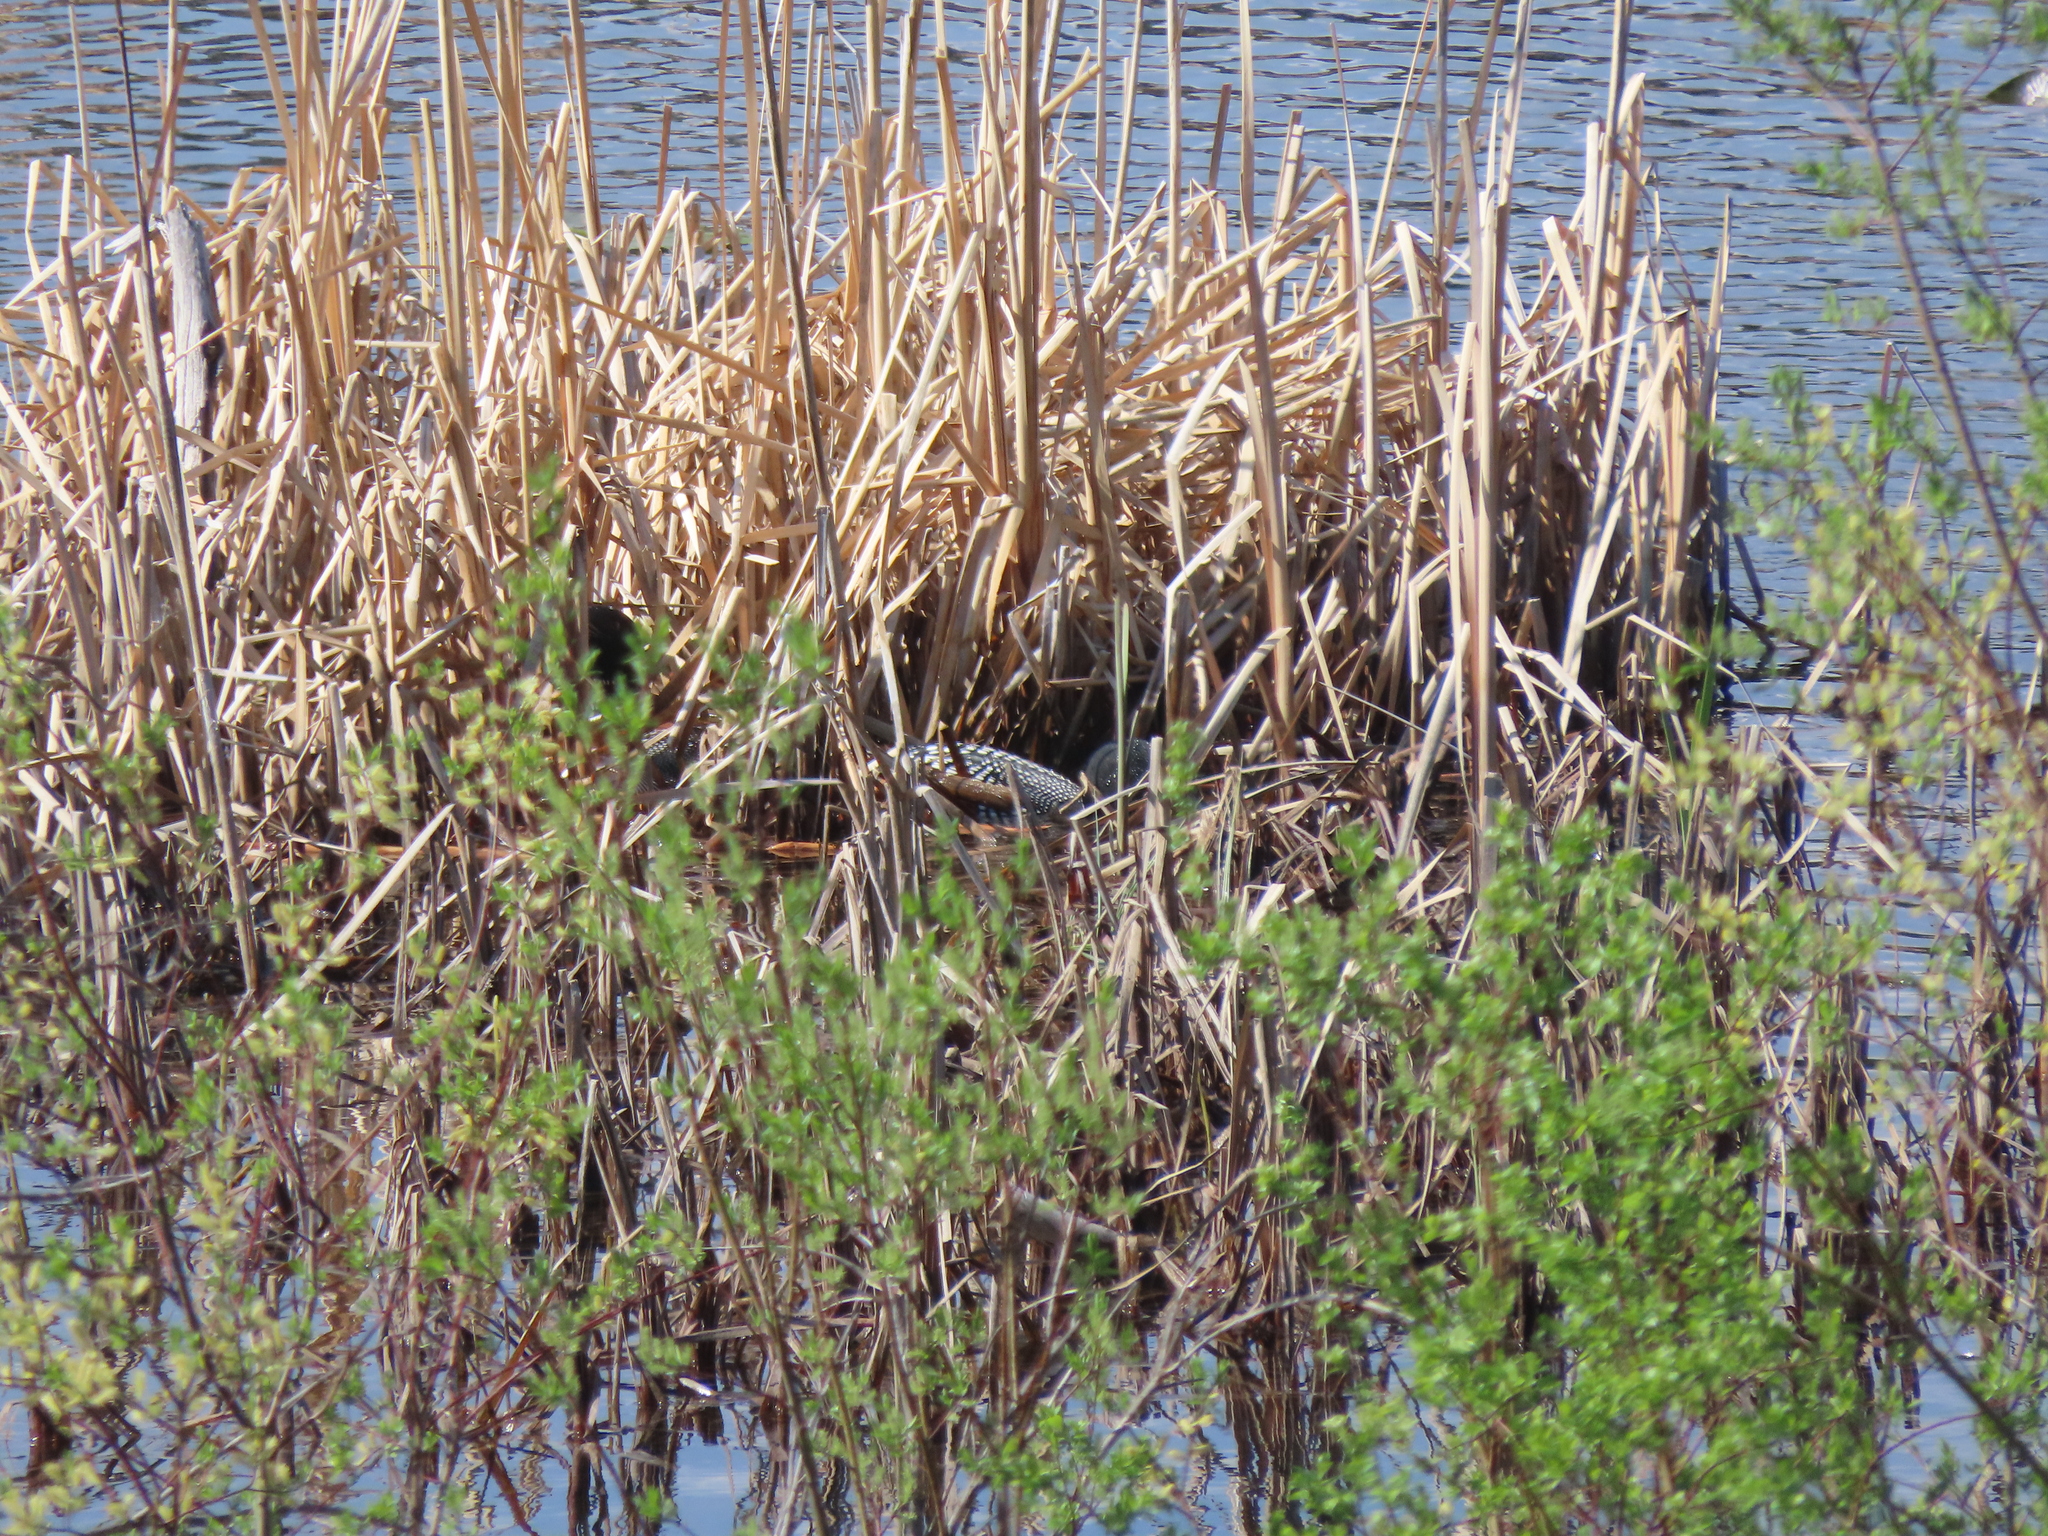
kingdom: Animalia
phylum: Chordata
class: Aves
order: Gaviiformes
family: Gaviidae
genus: Gavia
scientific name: Gavia immer
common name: Common loon
